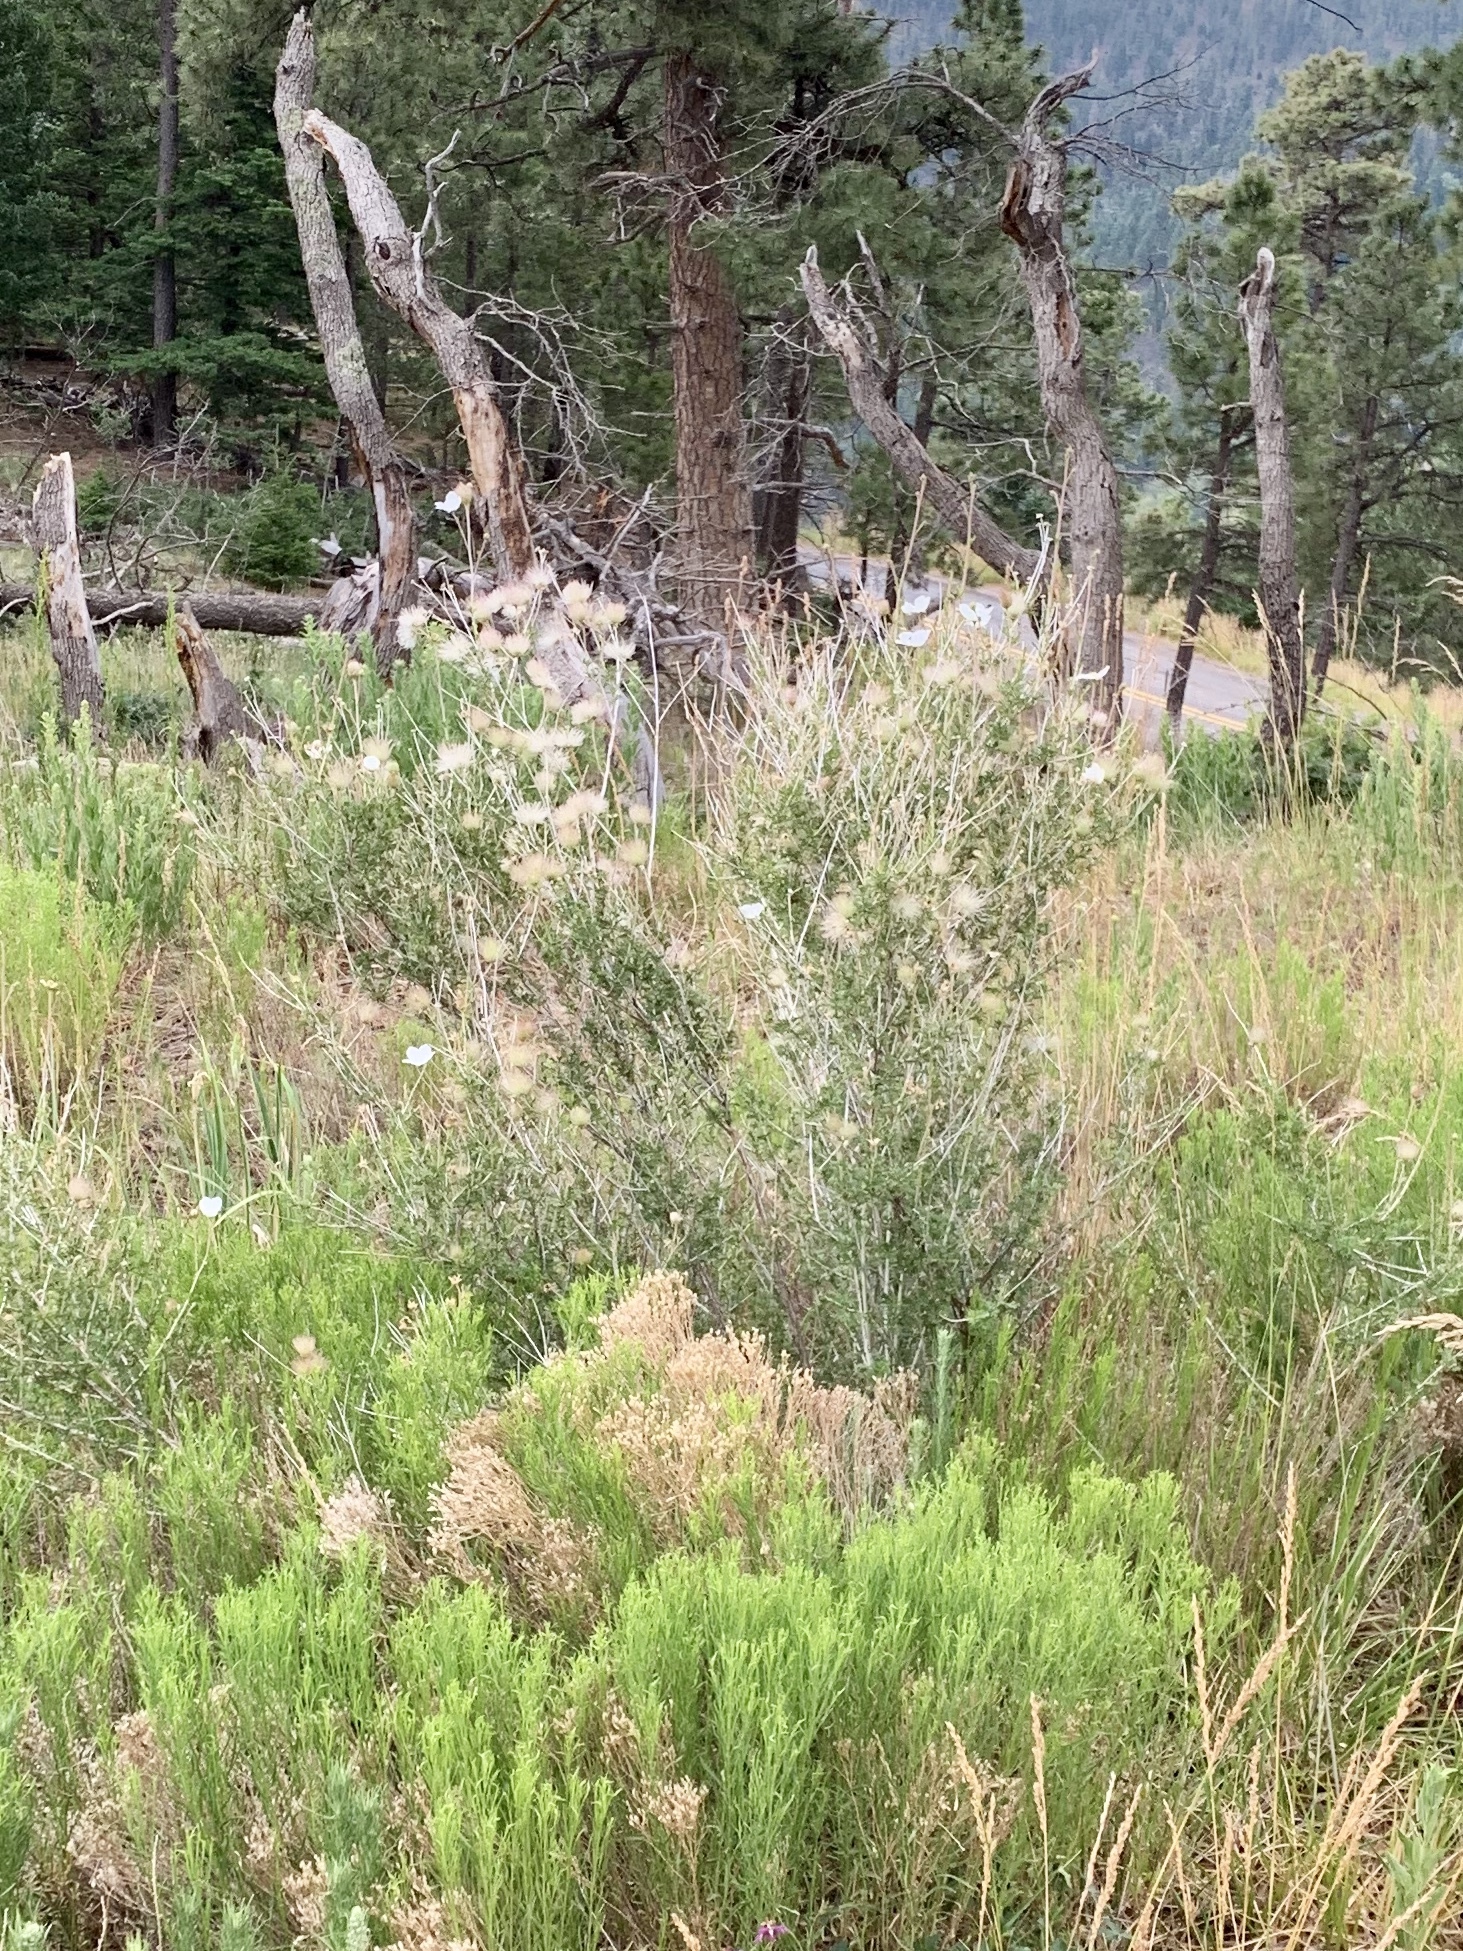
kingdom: Plantae
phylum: Tracheophyta
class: Magnoliopsida
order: Rosales
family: Rosaceae
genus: Fallugia
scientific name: Fallugia paradoxa
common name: Apache-plume
